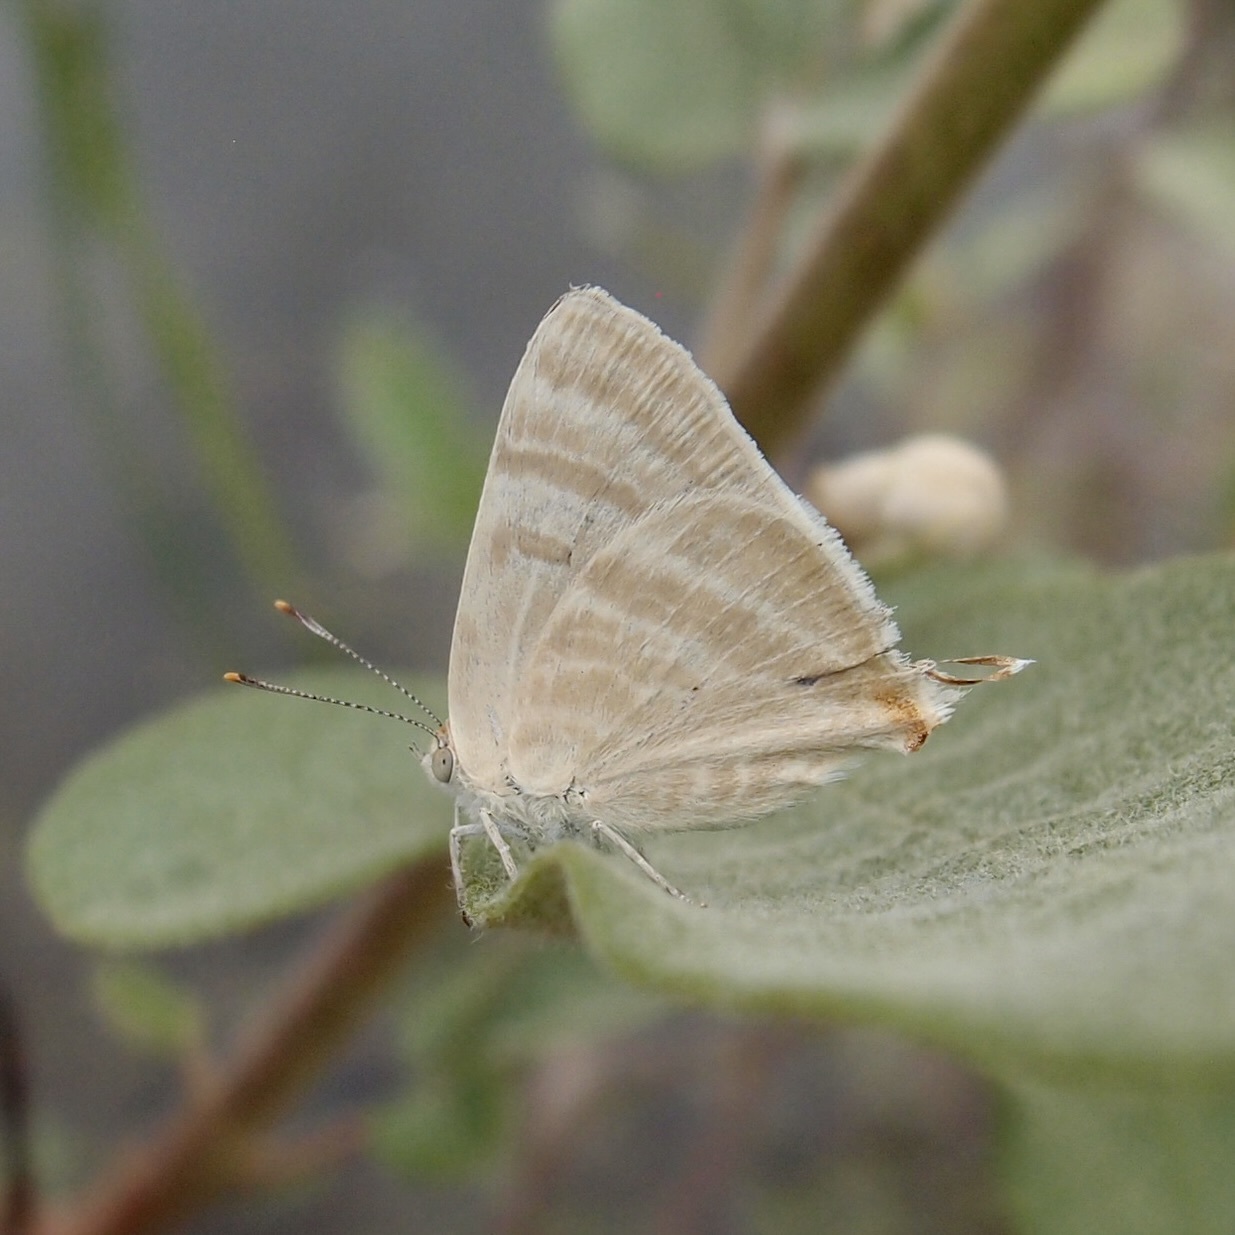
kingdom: Animalia
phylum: Arthropoda
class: Insecta
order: Lepidoptera
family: Lycaenidae
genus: Dolymorpha
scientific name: Dolymorpha jada
